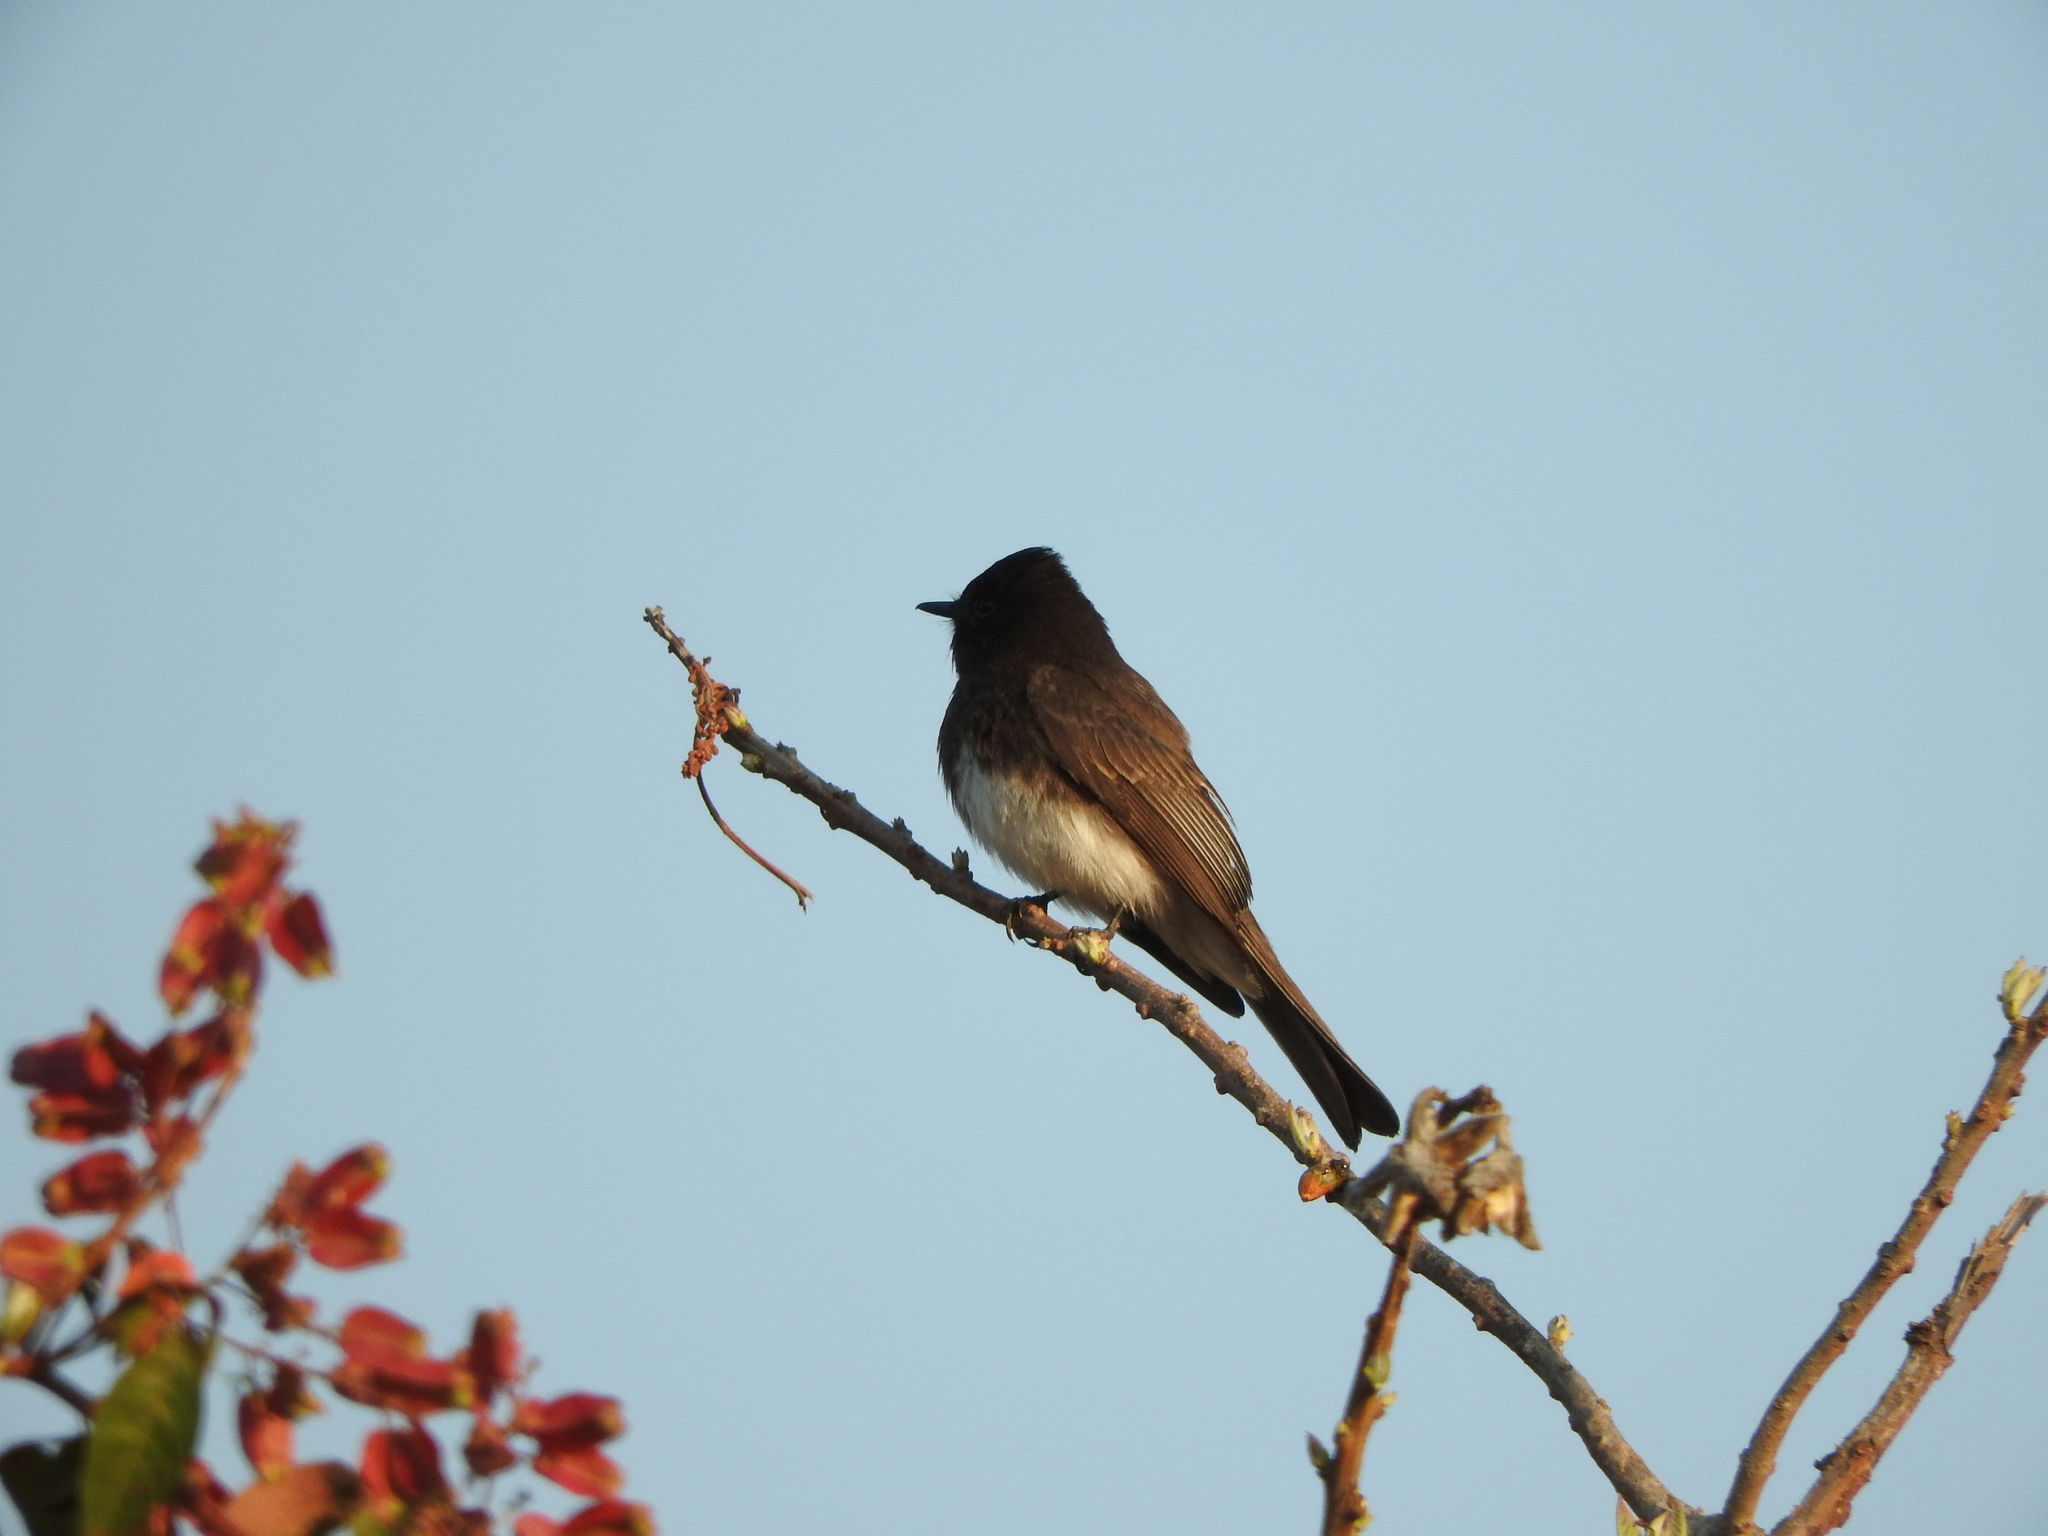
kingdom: Animalia
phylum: Chordata
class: Aves
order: Passeriformes
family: Tyrannidae
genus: Sayornis
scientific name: Sayornis nigricans
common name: Black phoebe
